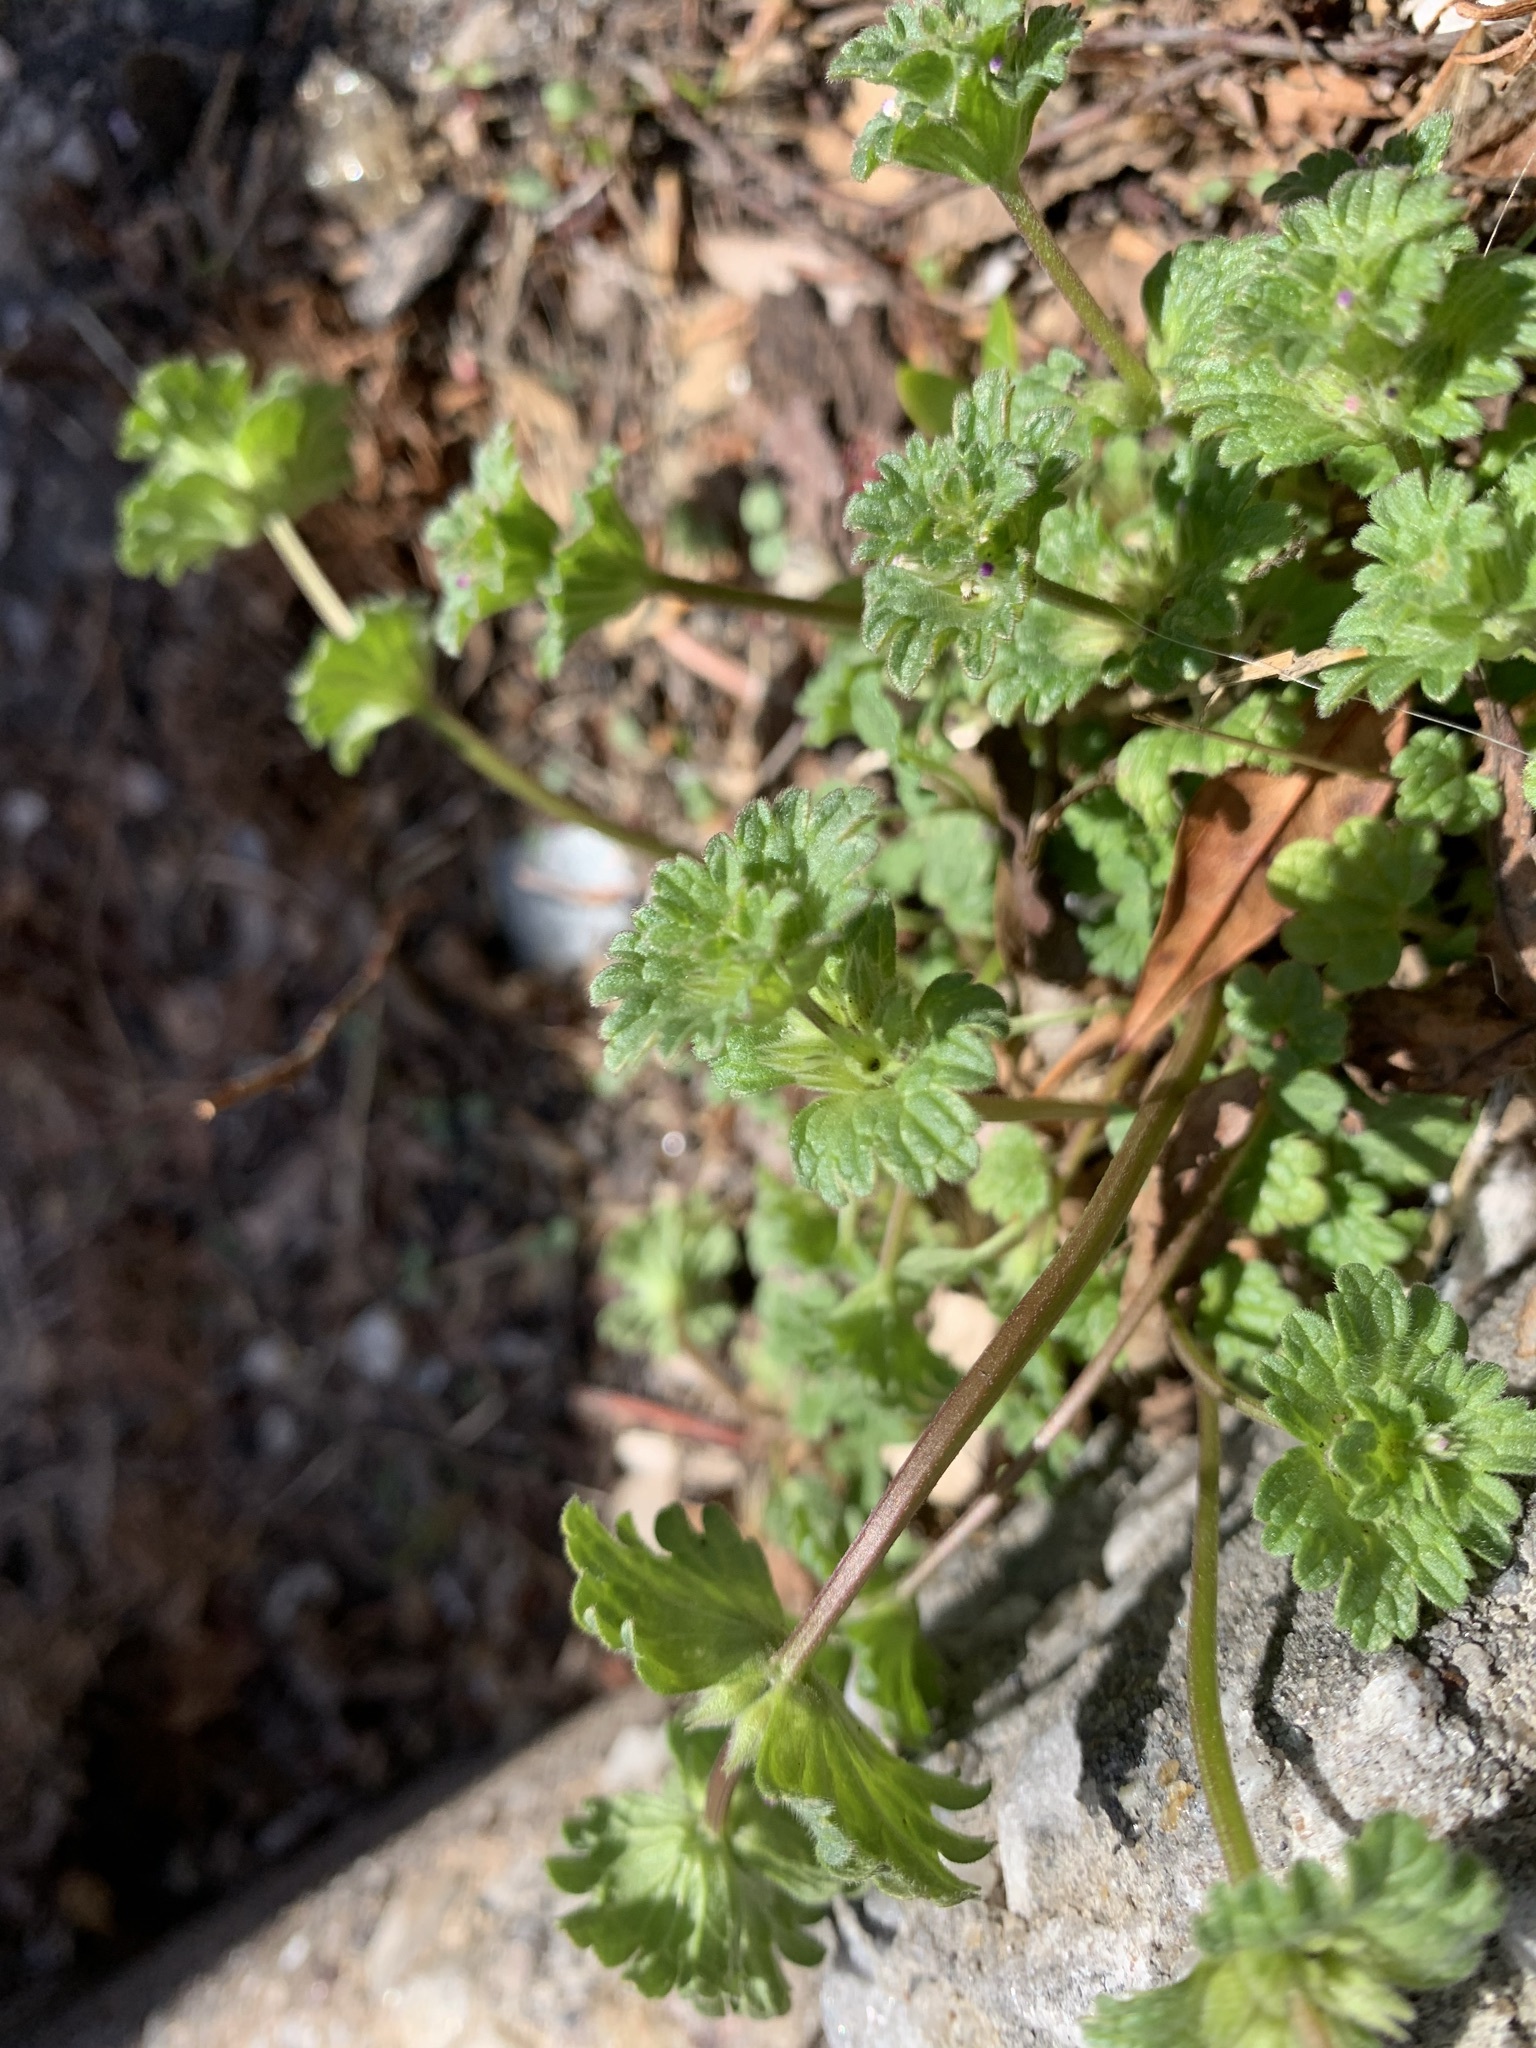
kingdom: Plantae
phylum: Tracheophyta
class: Magnoliopsida
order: Lamiales
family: Lamiaceae
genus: Lamium
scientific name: Lamium amplexicaule
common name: Henbit dead-nettle
